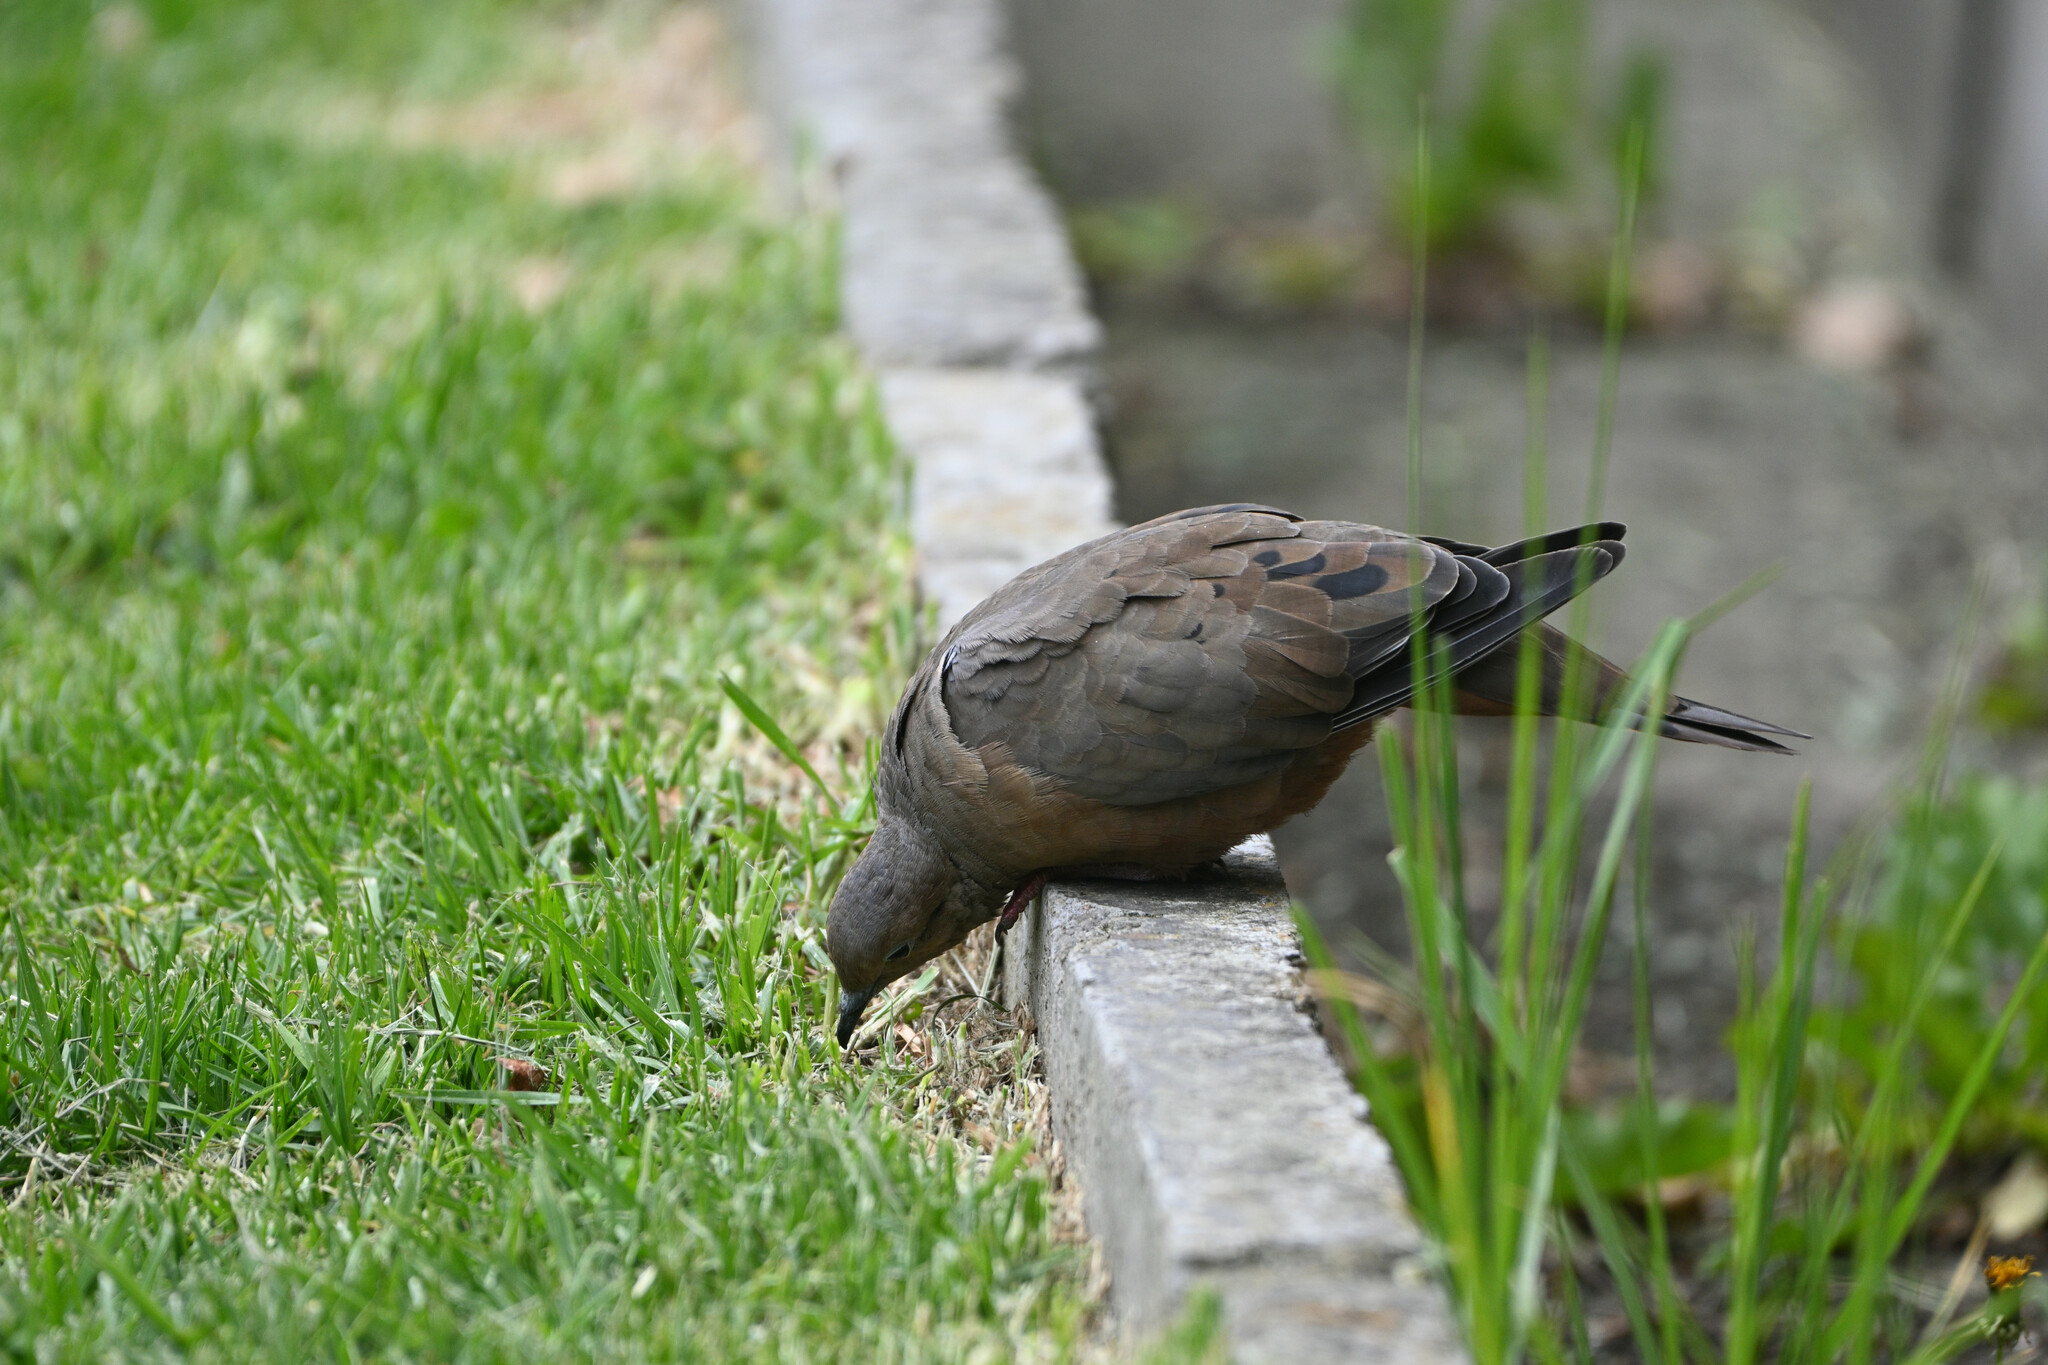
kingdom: Animalia
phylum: Chordata
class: Aves
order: Columbiformes
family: Columbidae
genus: Zenaida
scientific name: Zenaida auriculata
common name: Eared dove
